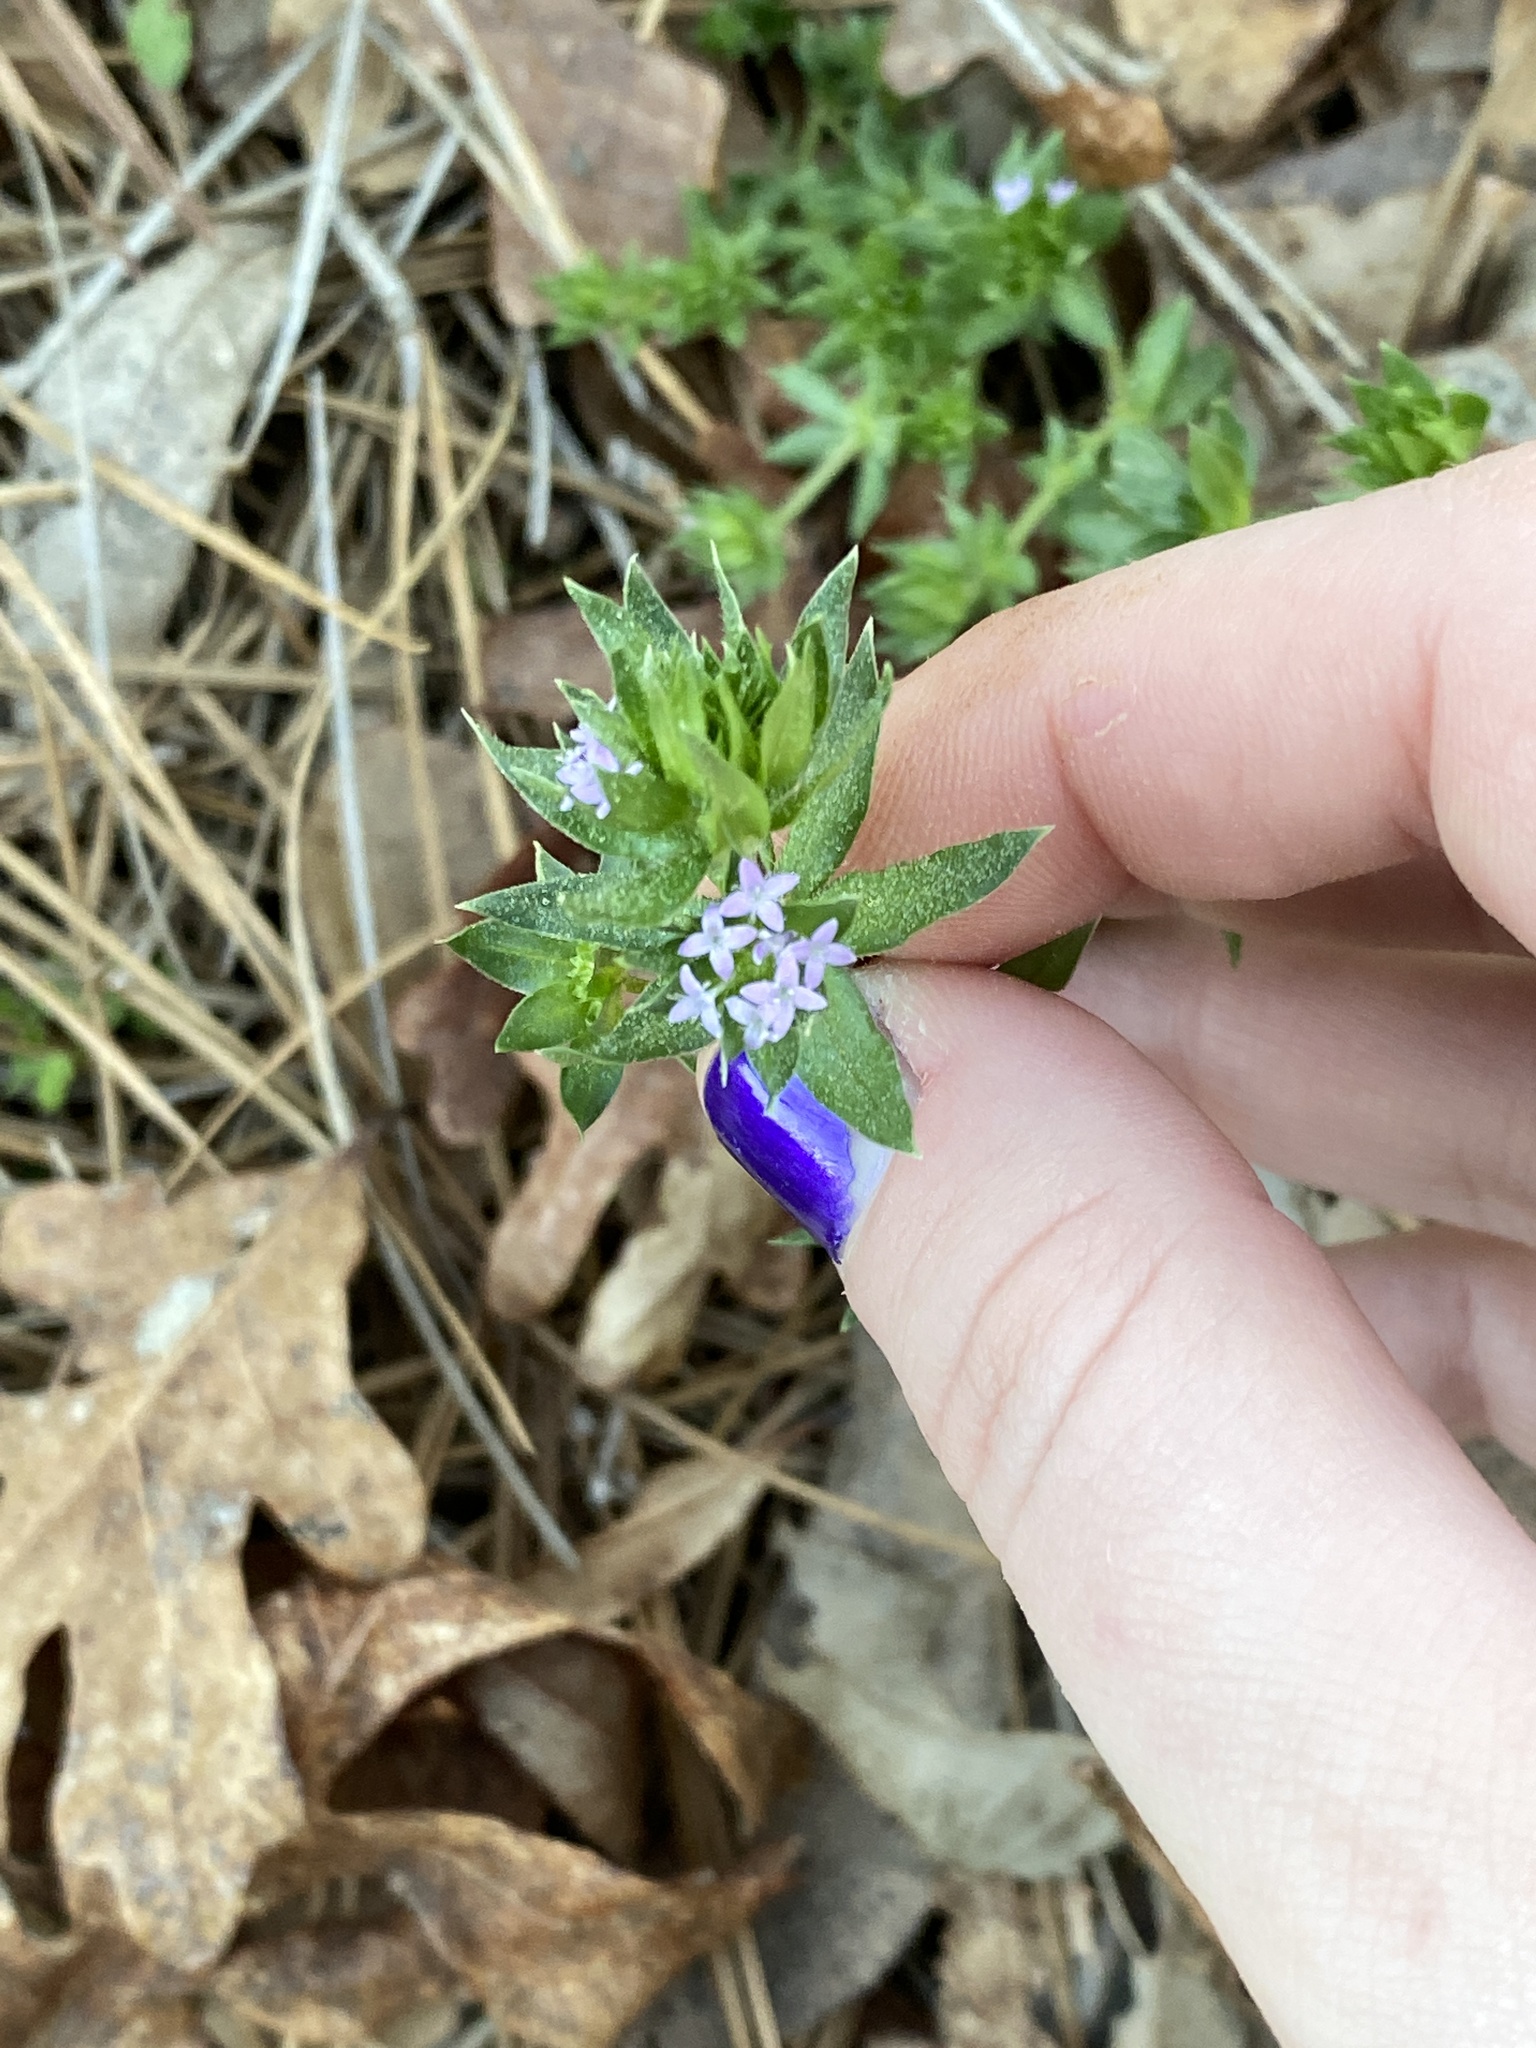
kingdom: Plantae
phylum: Tracheophyta
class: Magnoliopsida
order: Gentianales
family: Rubiaceae
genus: Sherardia
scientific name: Sherardia arvensis
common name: Field madder
